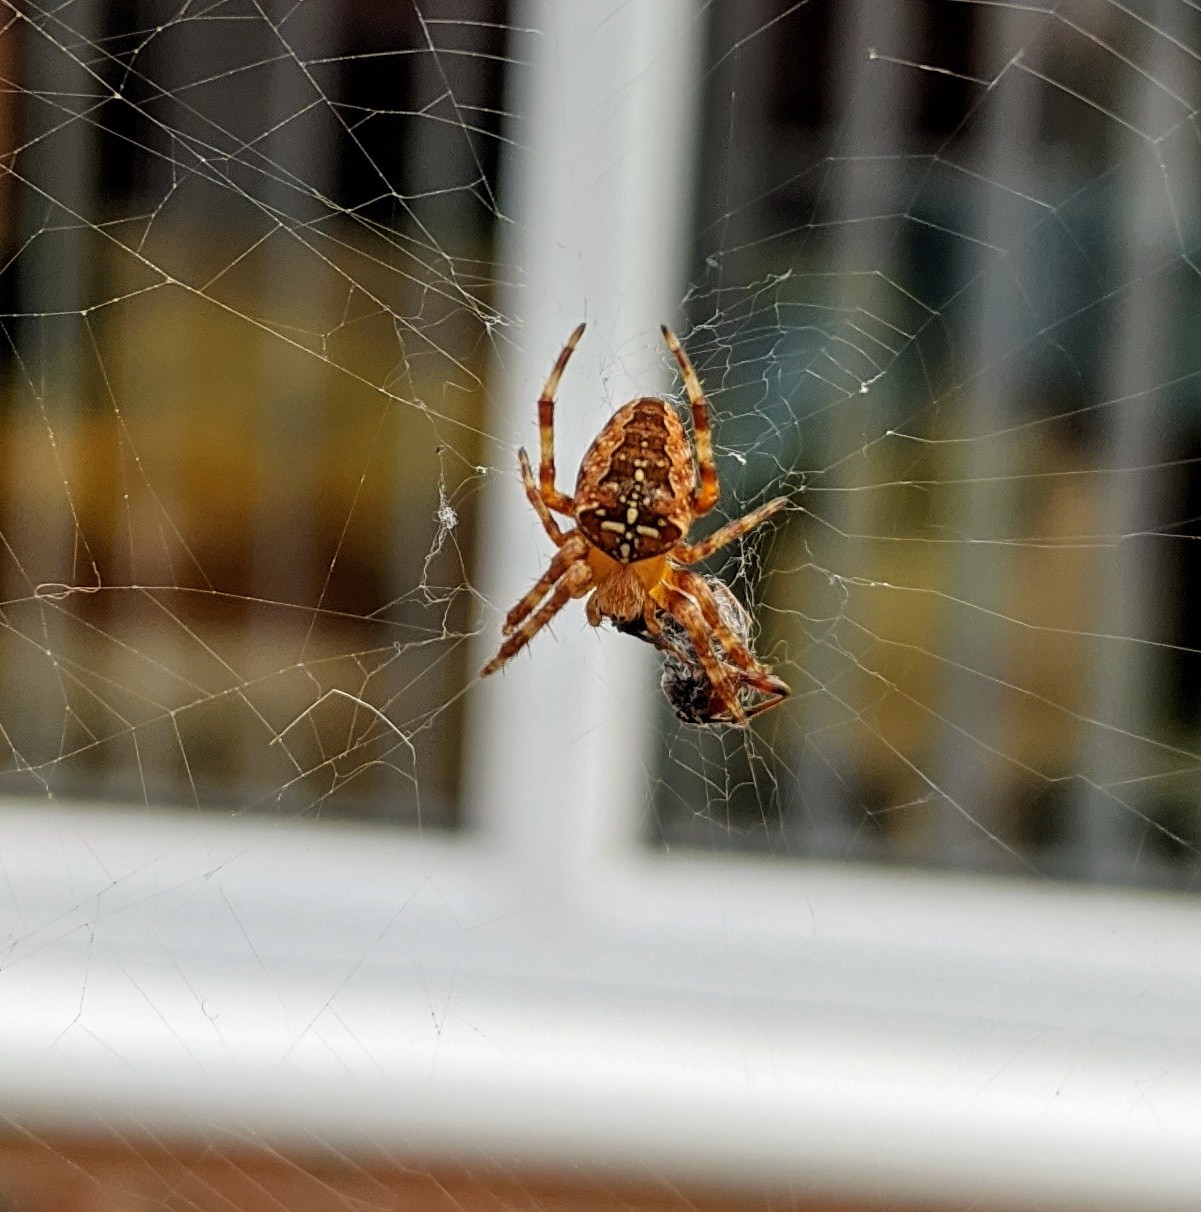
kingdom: Animalia
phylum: Arthropoda
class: Arachnida
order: Araneae
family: Araneidae
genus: Araneus
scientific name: Araneus diadematus
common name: Cross orbweaver
